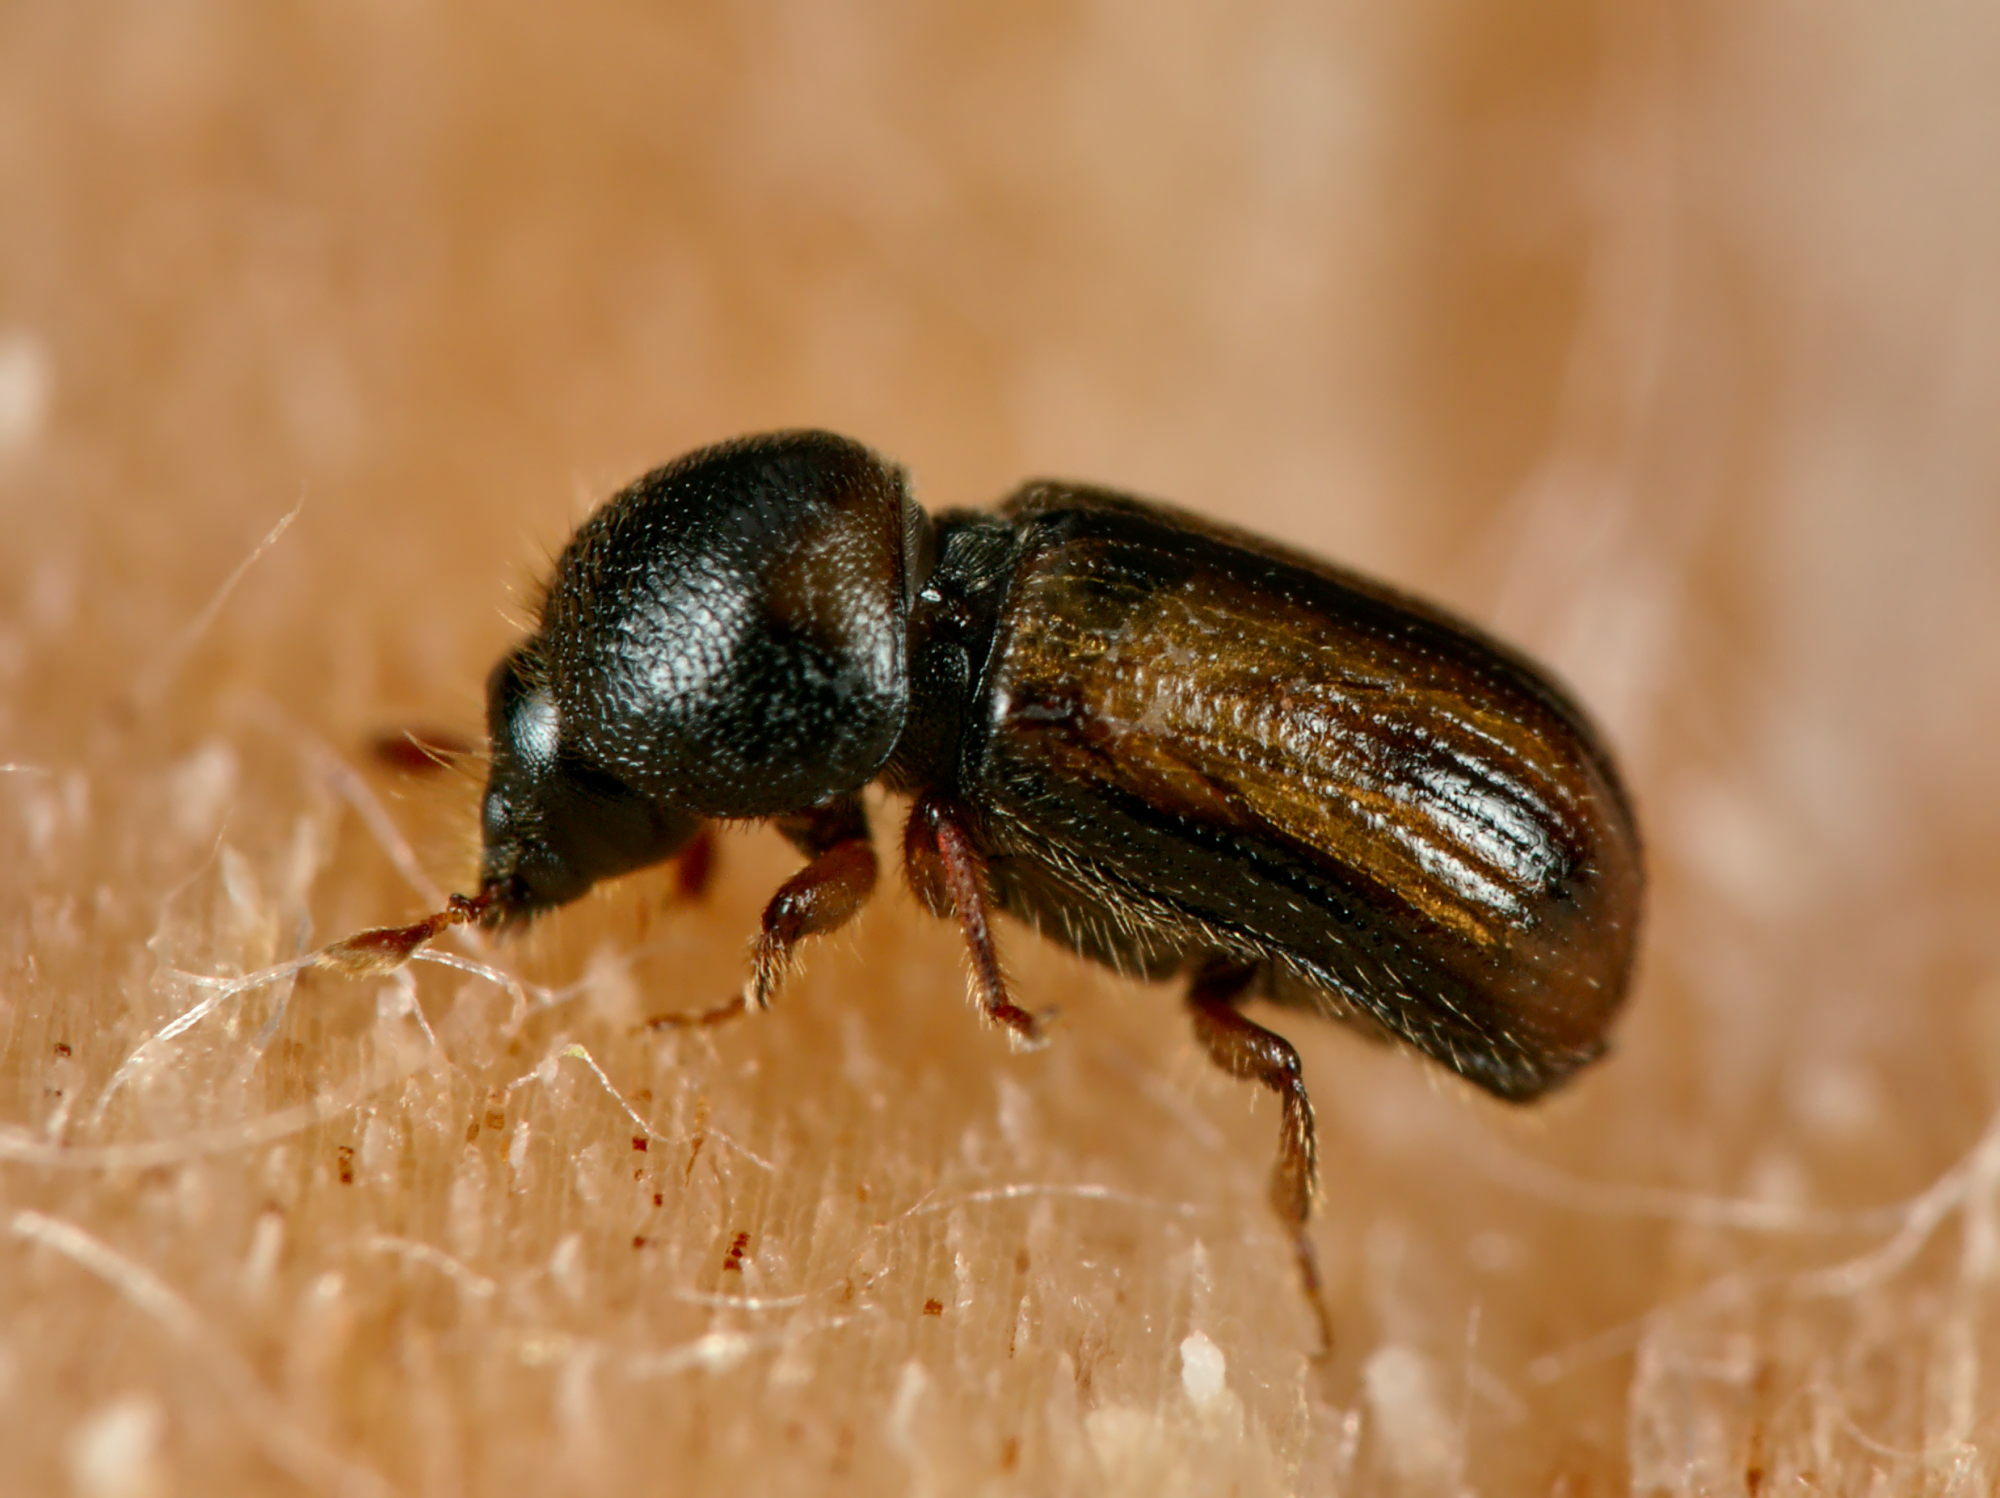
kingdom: Animalia
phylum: Arthropoda
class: Insecta
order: Coleoptera
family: Curculionidae
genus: Trypodendron
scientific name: Trypodendron lineatum
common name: Lineate bark beetle
